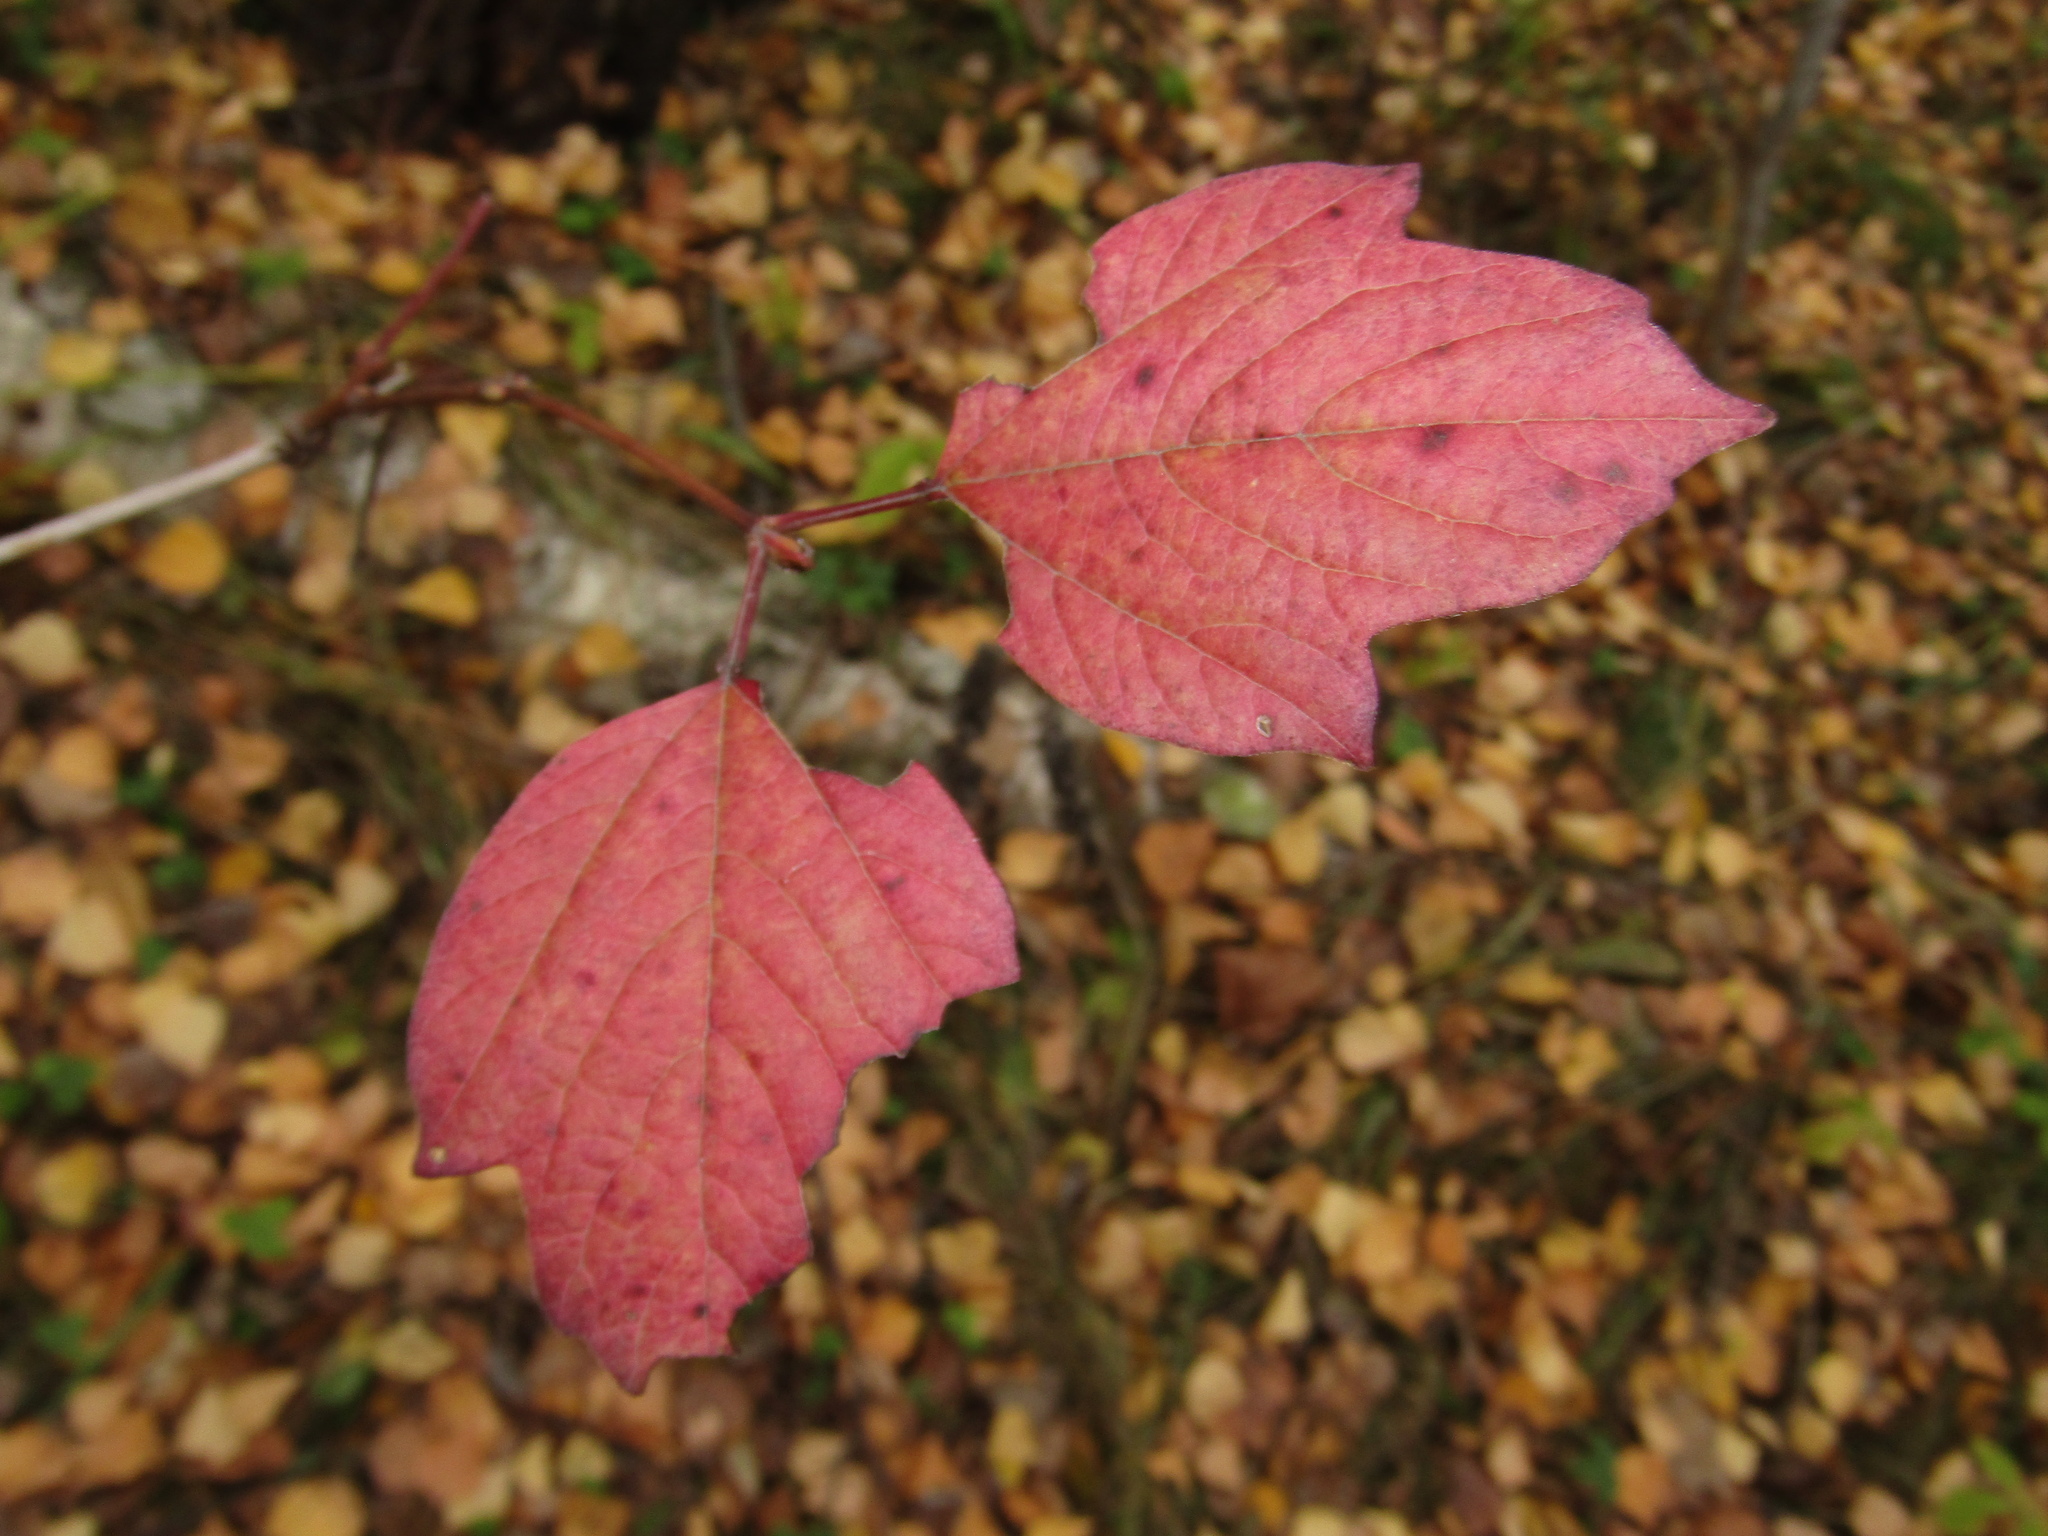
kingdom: Plantae
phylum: Tracheophyta
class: Magnoliopsida
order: Dipsacales
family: Viburnaceae
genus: Viburnum
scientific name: Viburnum opulus
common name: Guelder-rose
